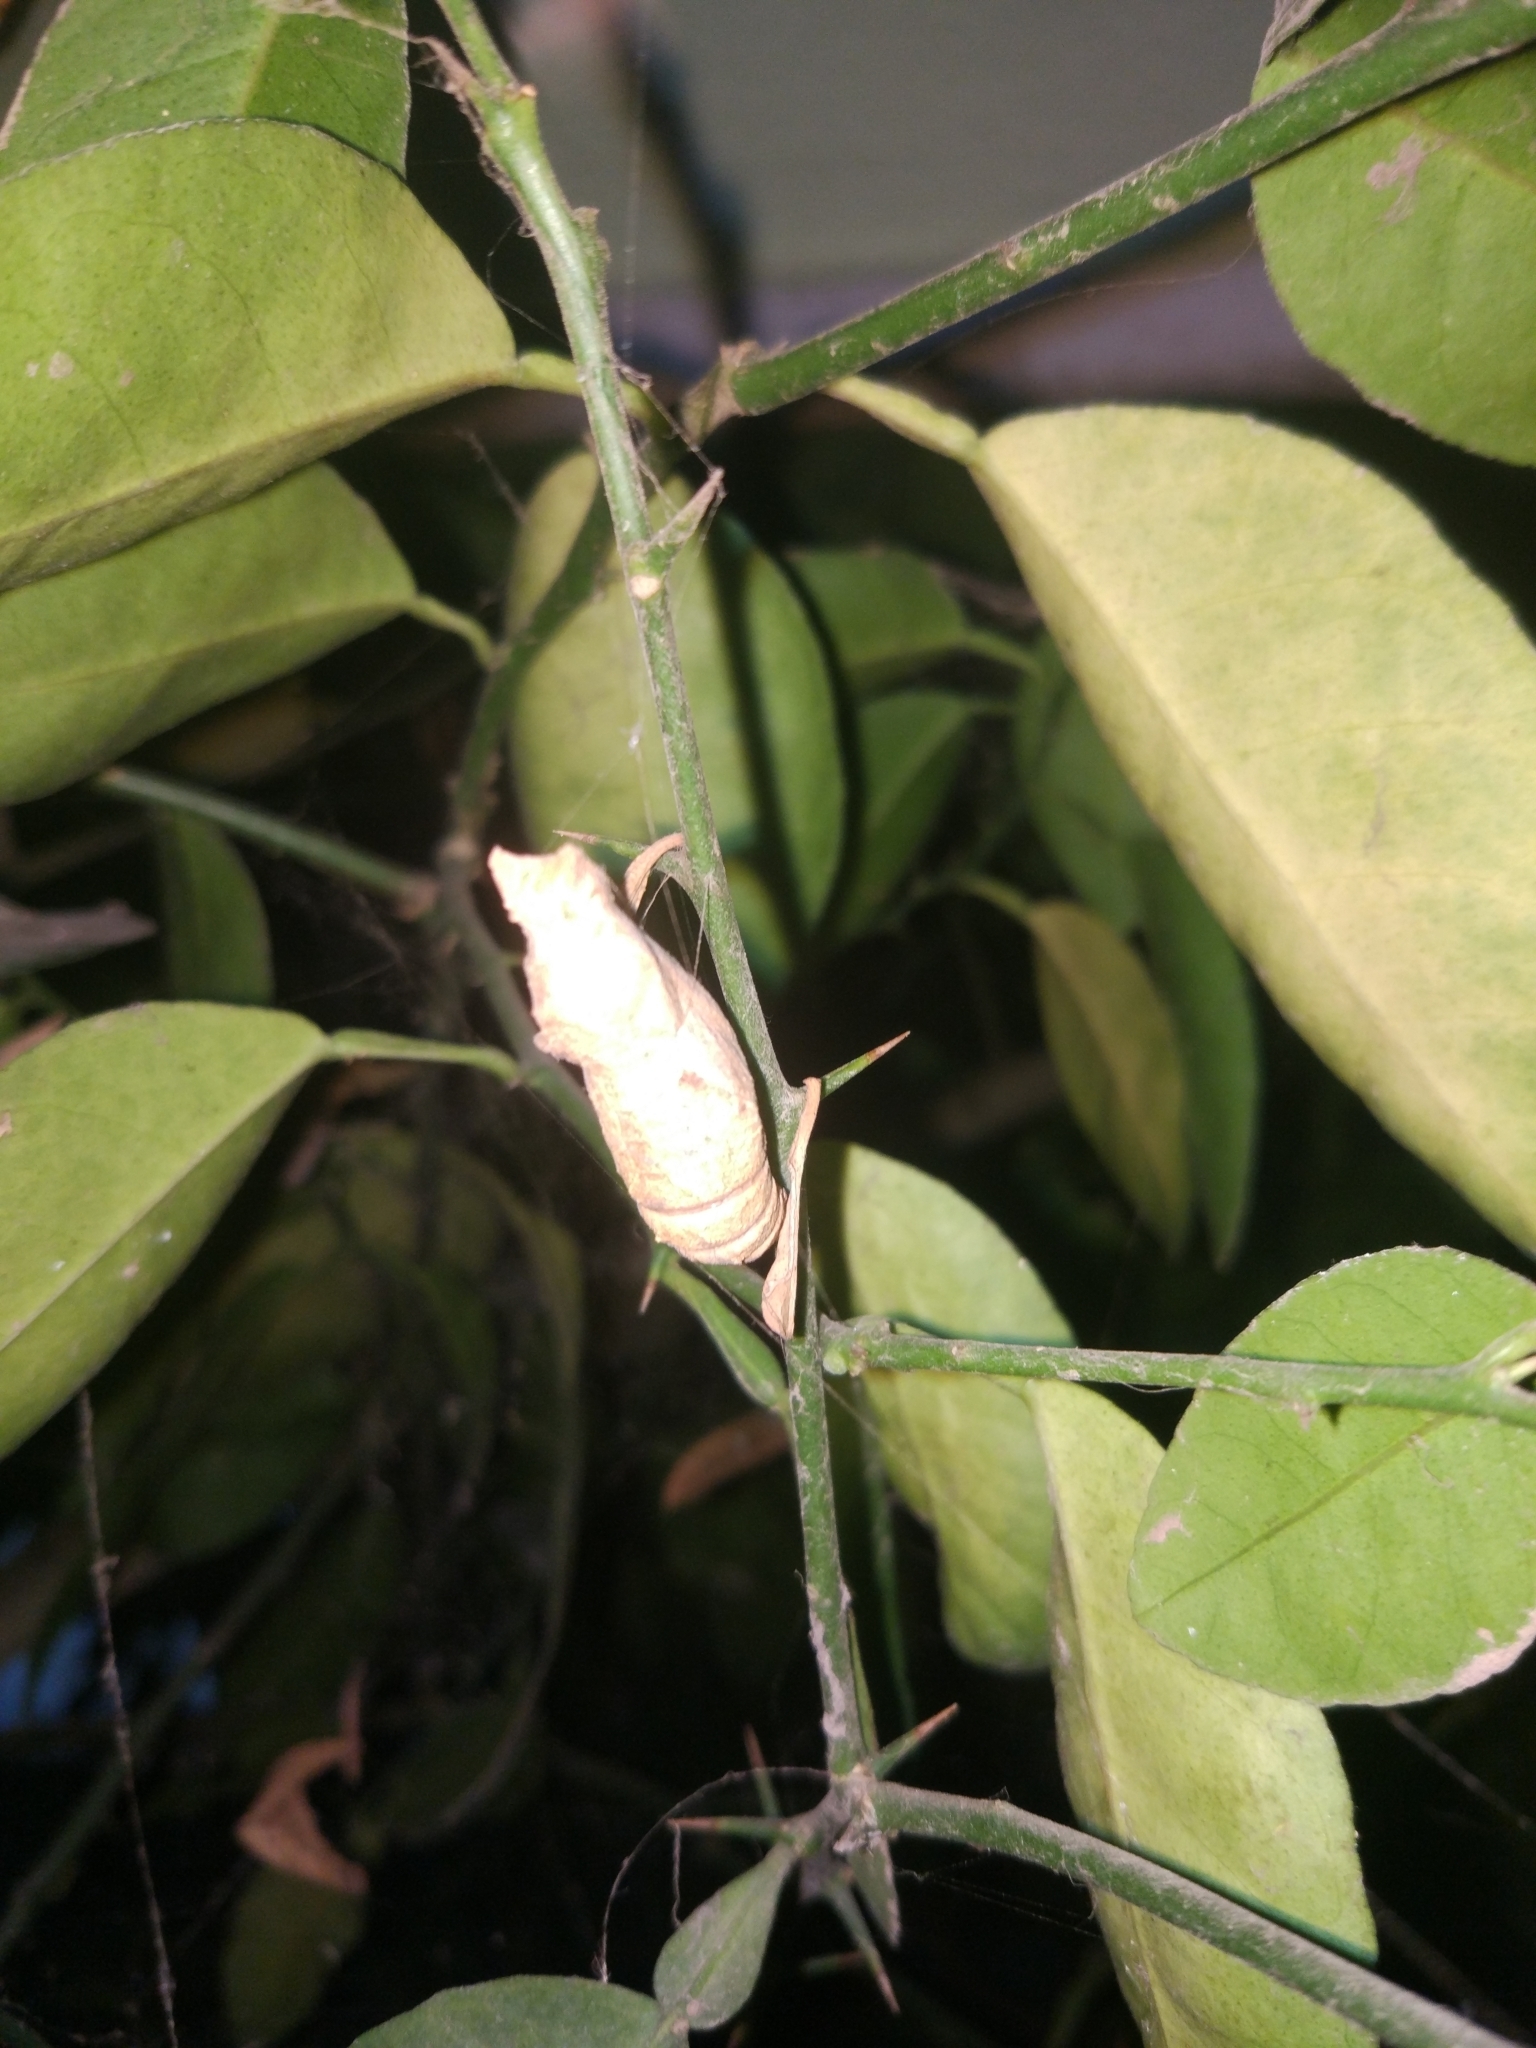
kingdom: Animalia
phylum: Arthropoda
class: Insecta
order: Lepidoptera
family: Papilionidae
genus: Papilio
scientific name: Papilio demoleus
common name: Lime butterfly
